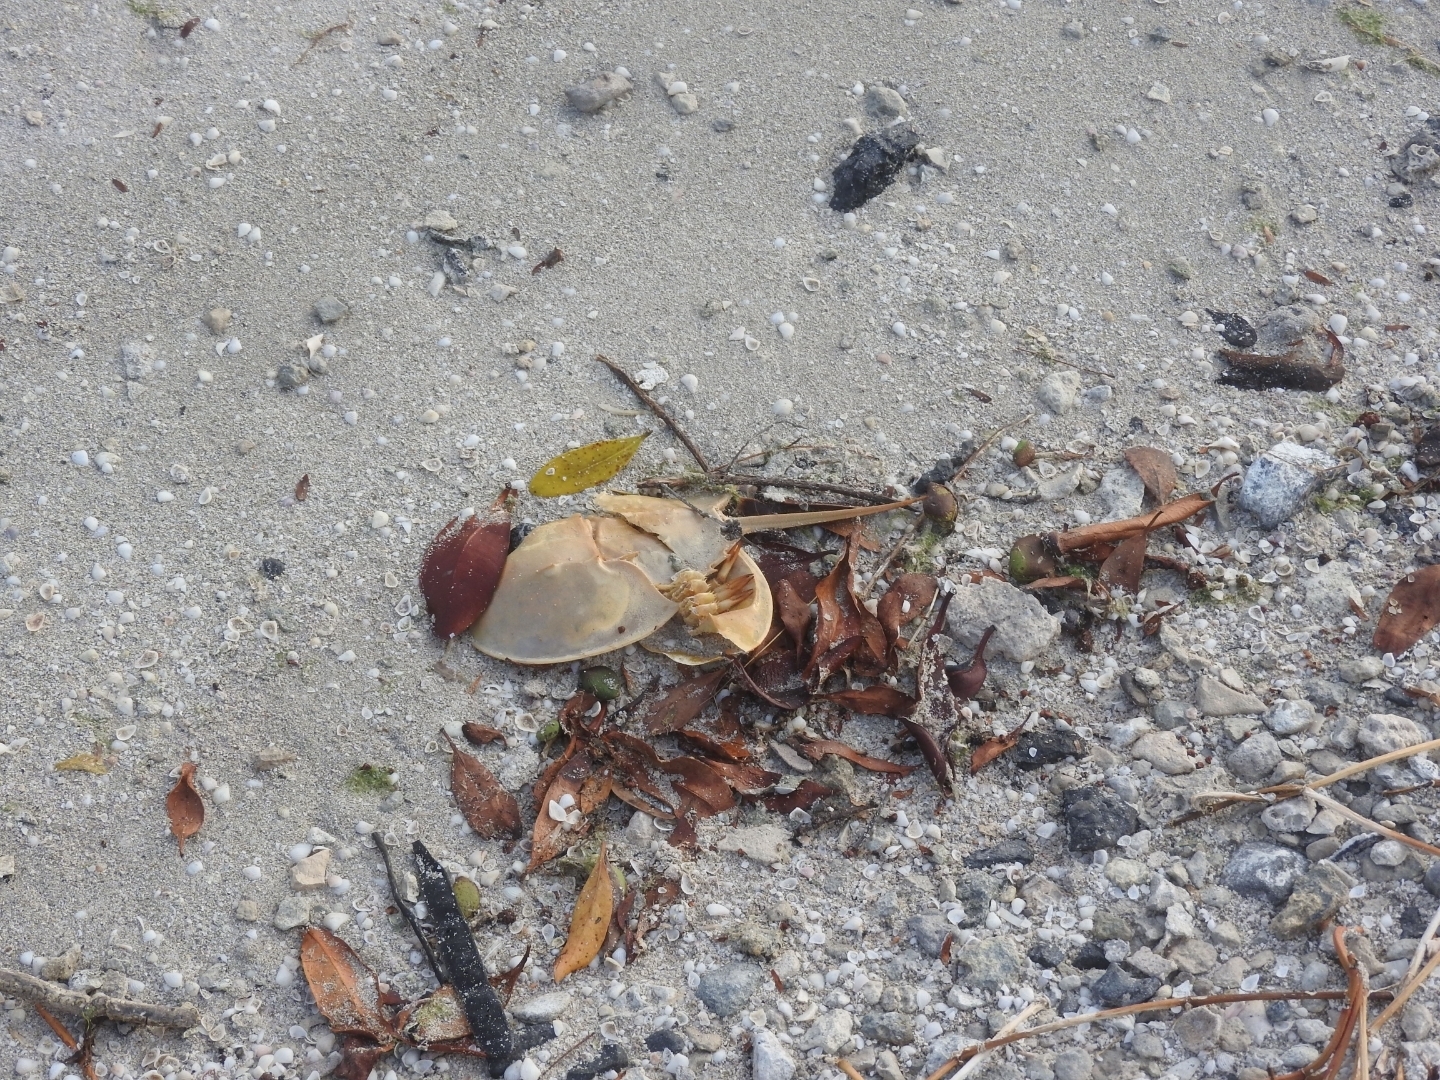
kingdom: Animalia
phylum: Arthropoda
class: Merostomata
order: Xiphosurida
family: Limulidae
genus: Limulus
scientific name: Limulus polyphemus
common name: Horseshoe crab
